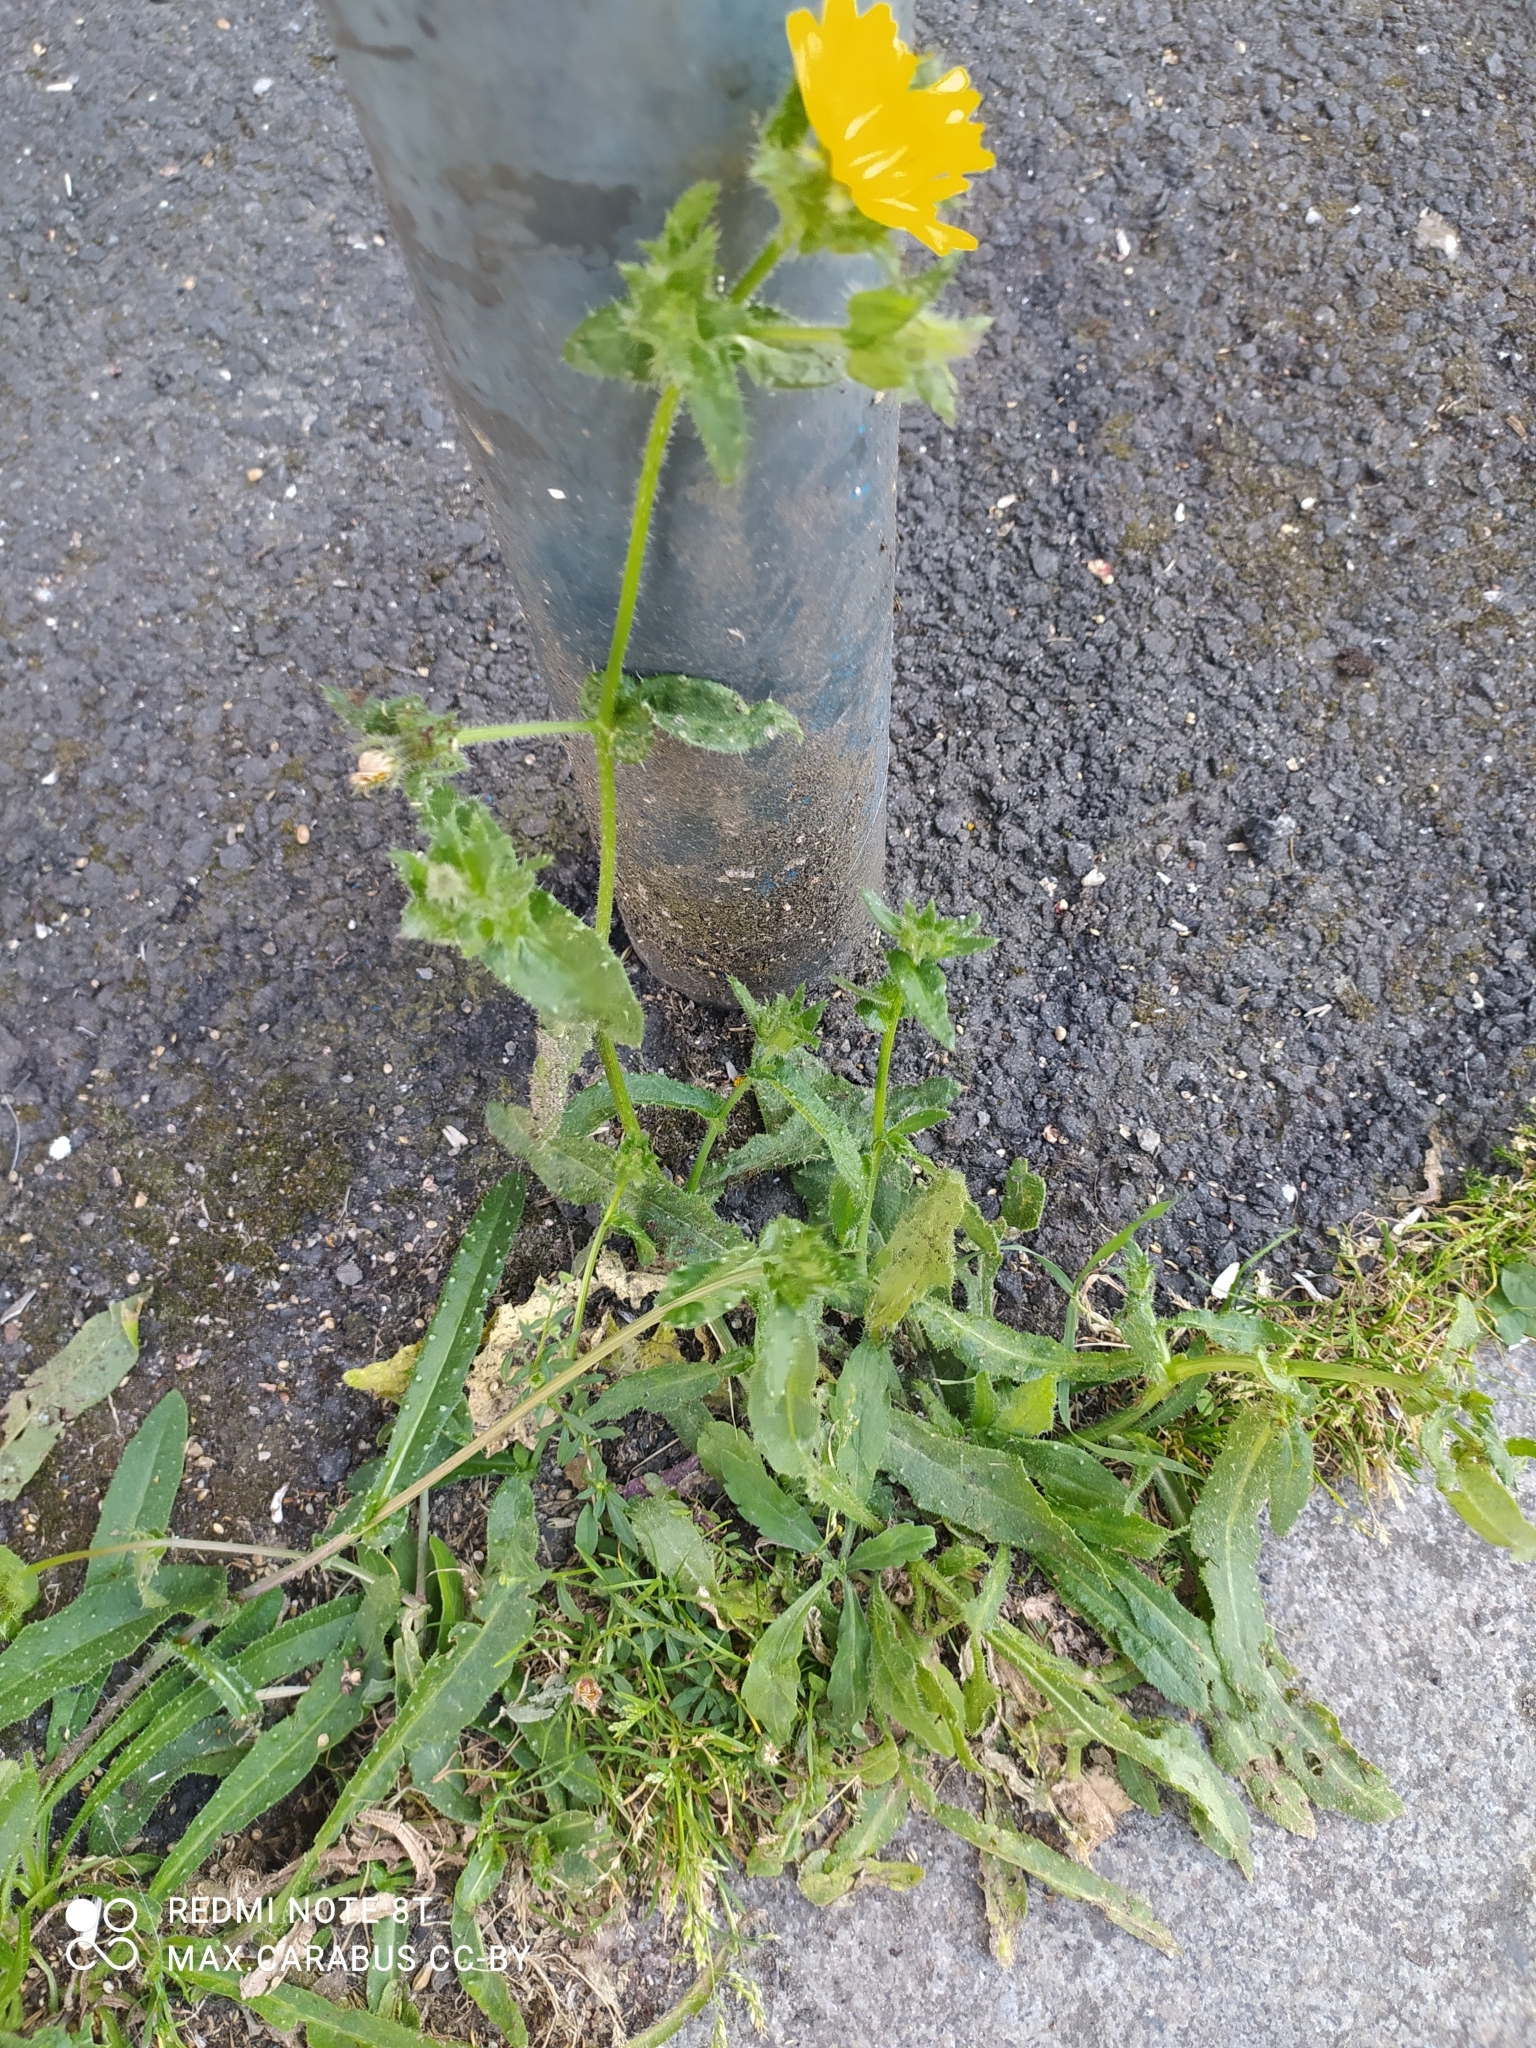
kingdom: Plantae
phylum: Tracheophyta
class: Magnoliopsida
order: Asterales
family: Asteraceae
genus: Helminthotheca
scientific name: Helminthotheca echioides
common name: Ox-tongue
